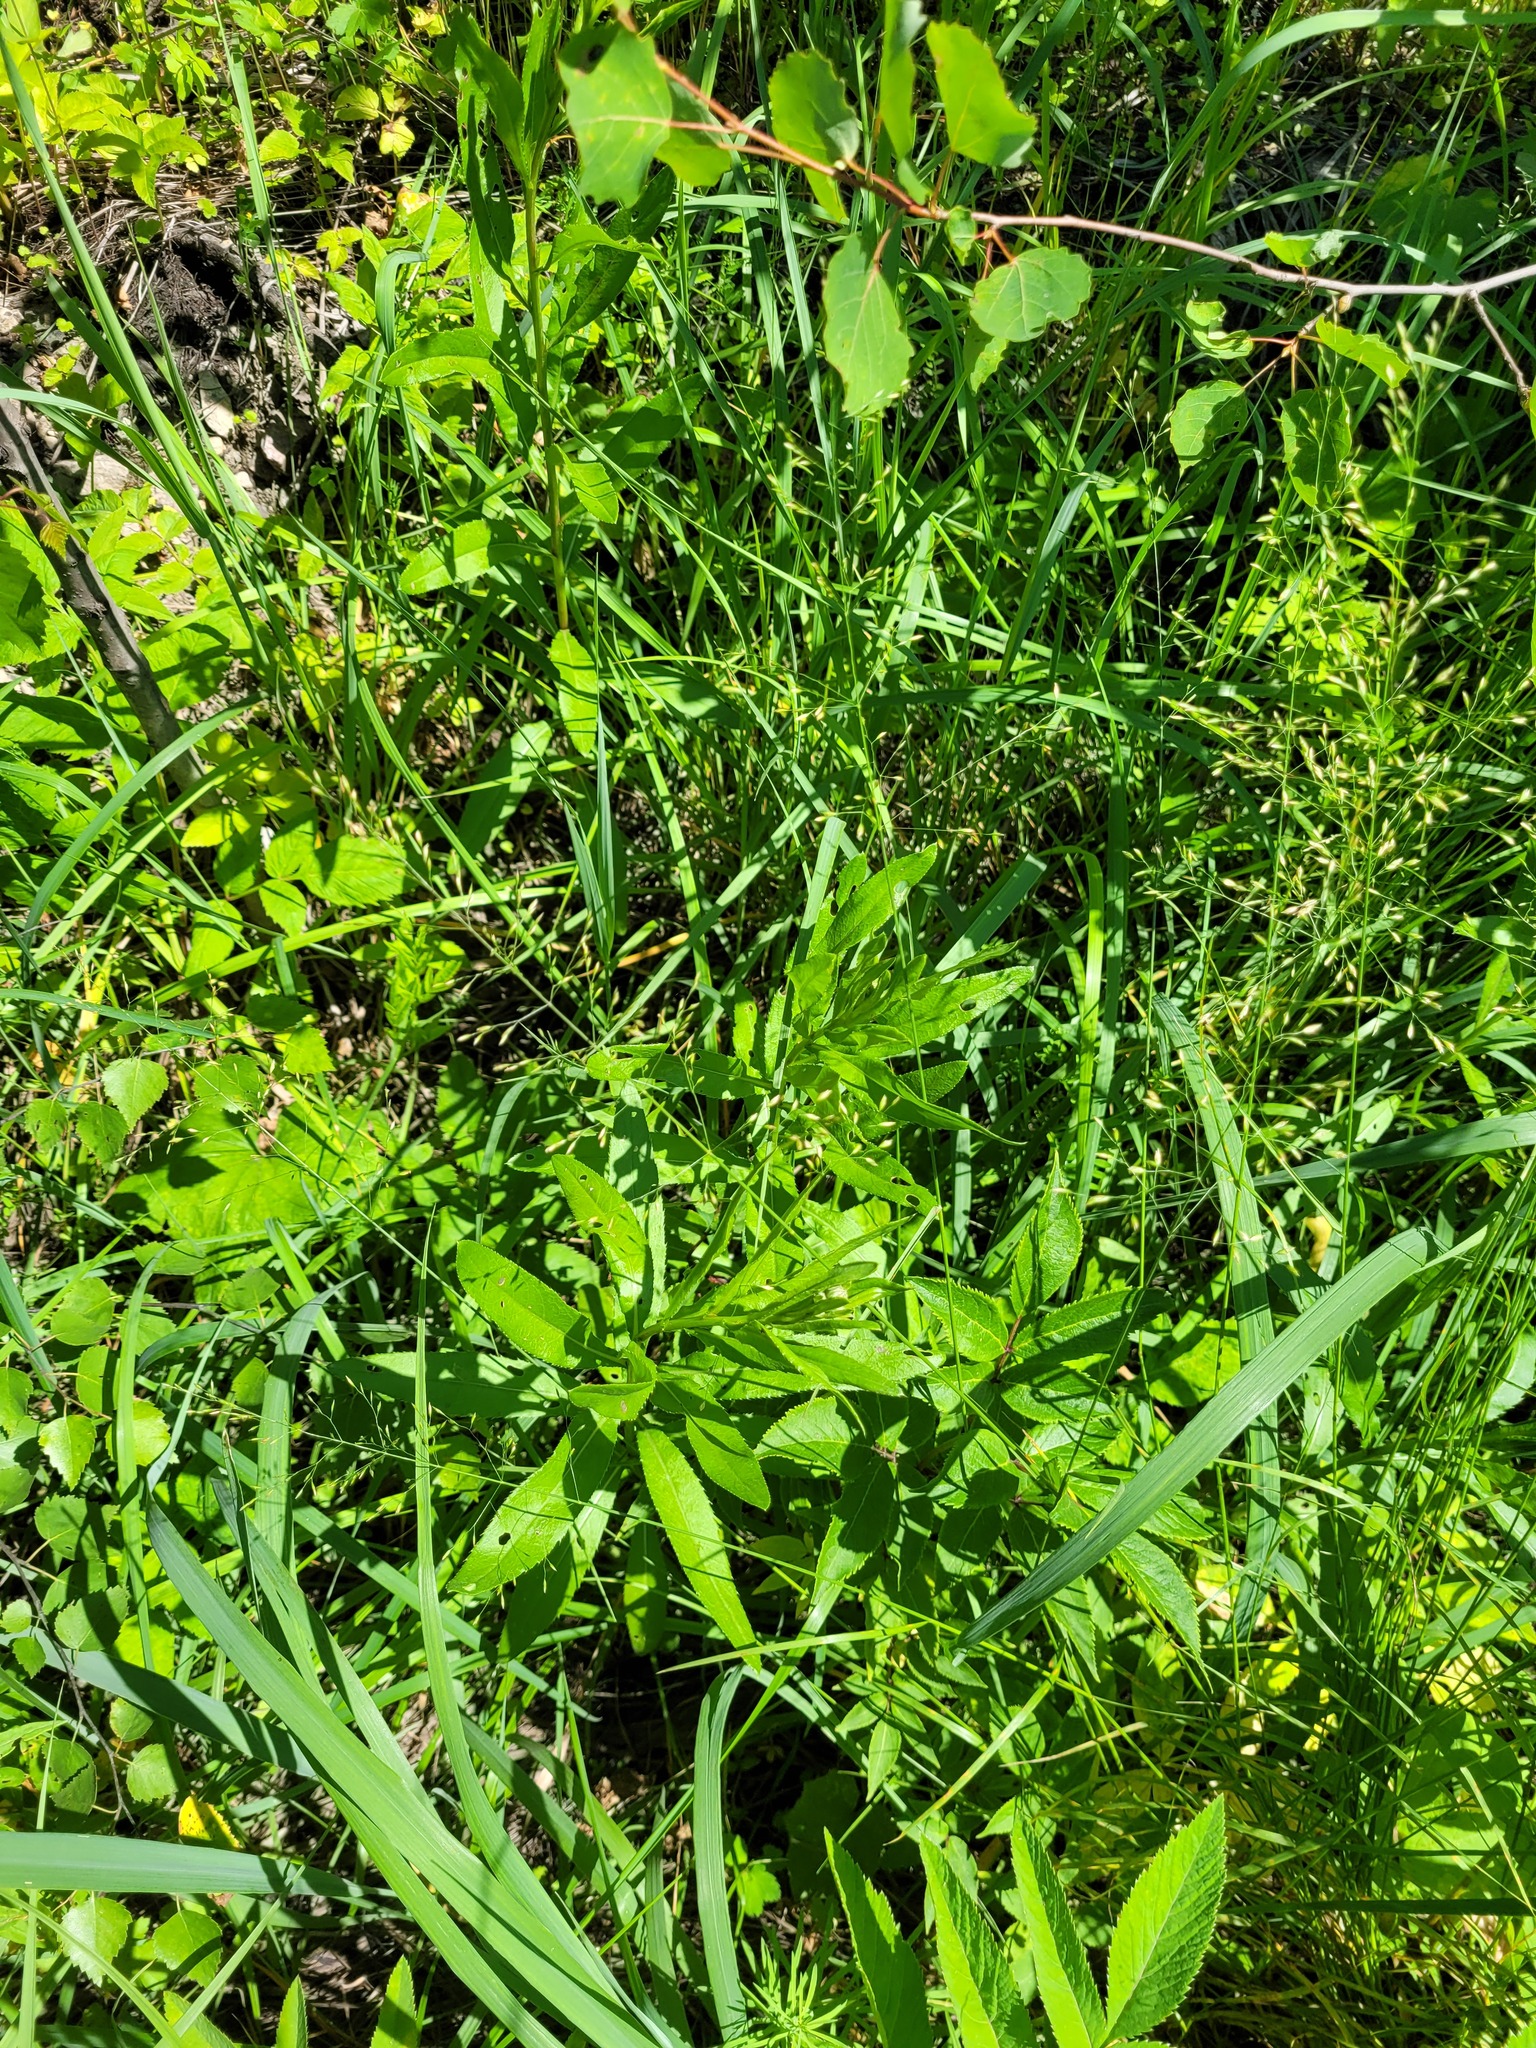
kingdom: Plantae
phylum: Tracheophyta
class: Magnoliopsida
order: Asterales
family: Asteraceae
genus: Cirsium
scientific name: Cirsium arvense
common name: Creeping thistle
